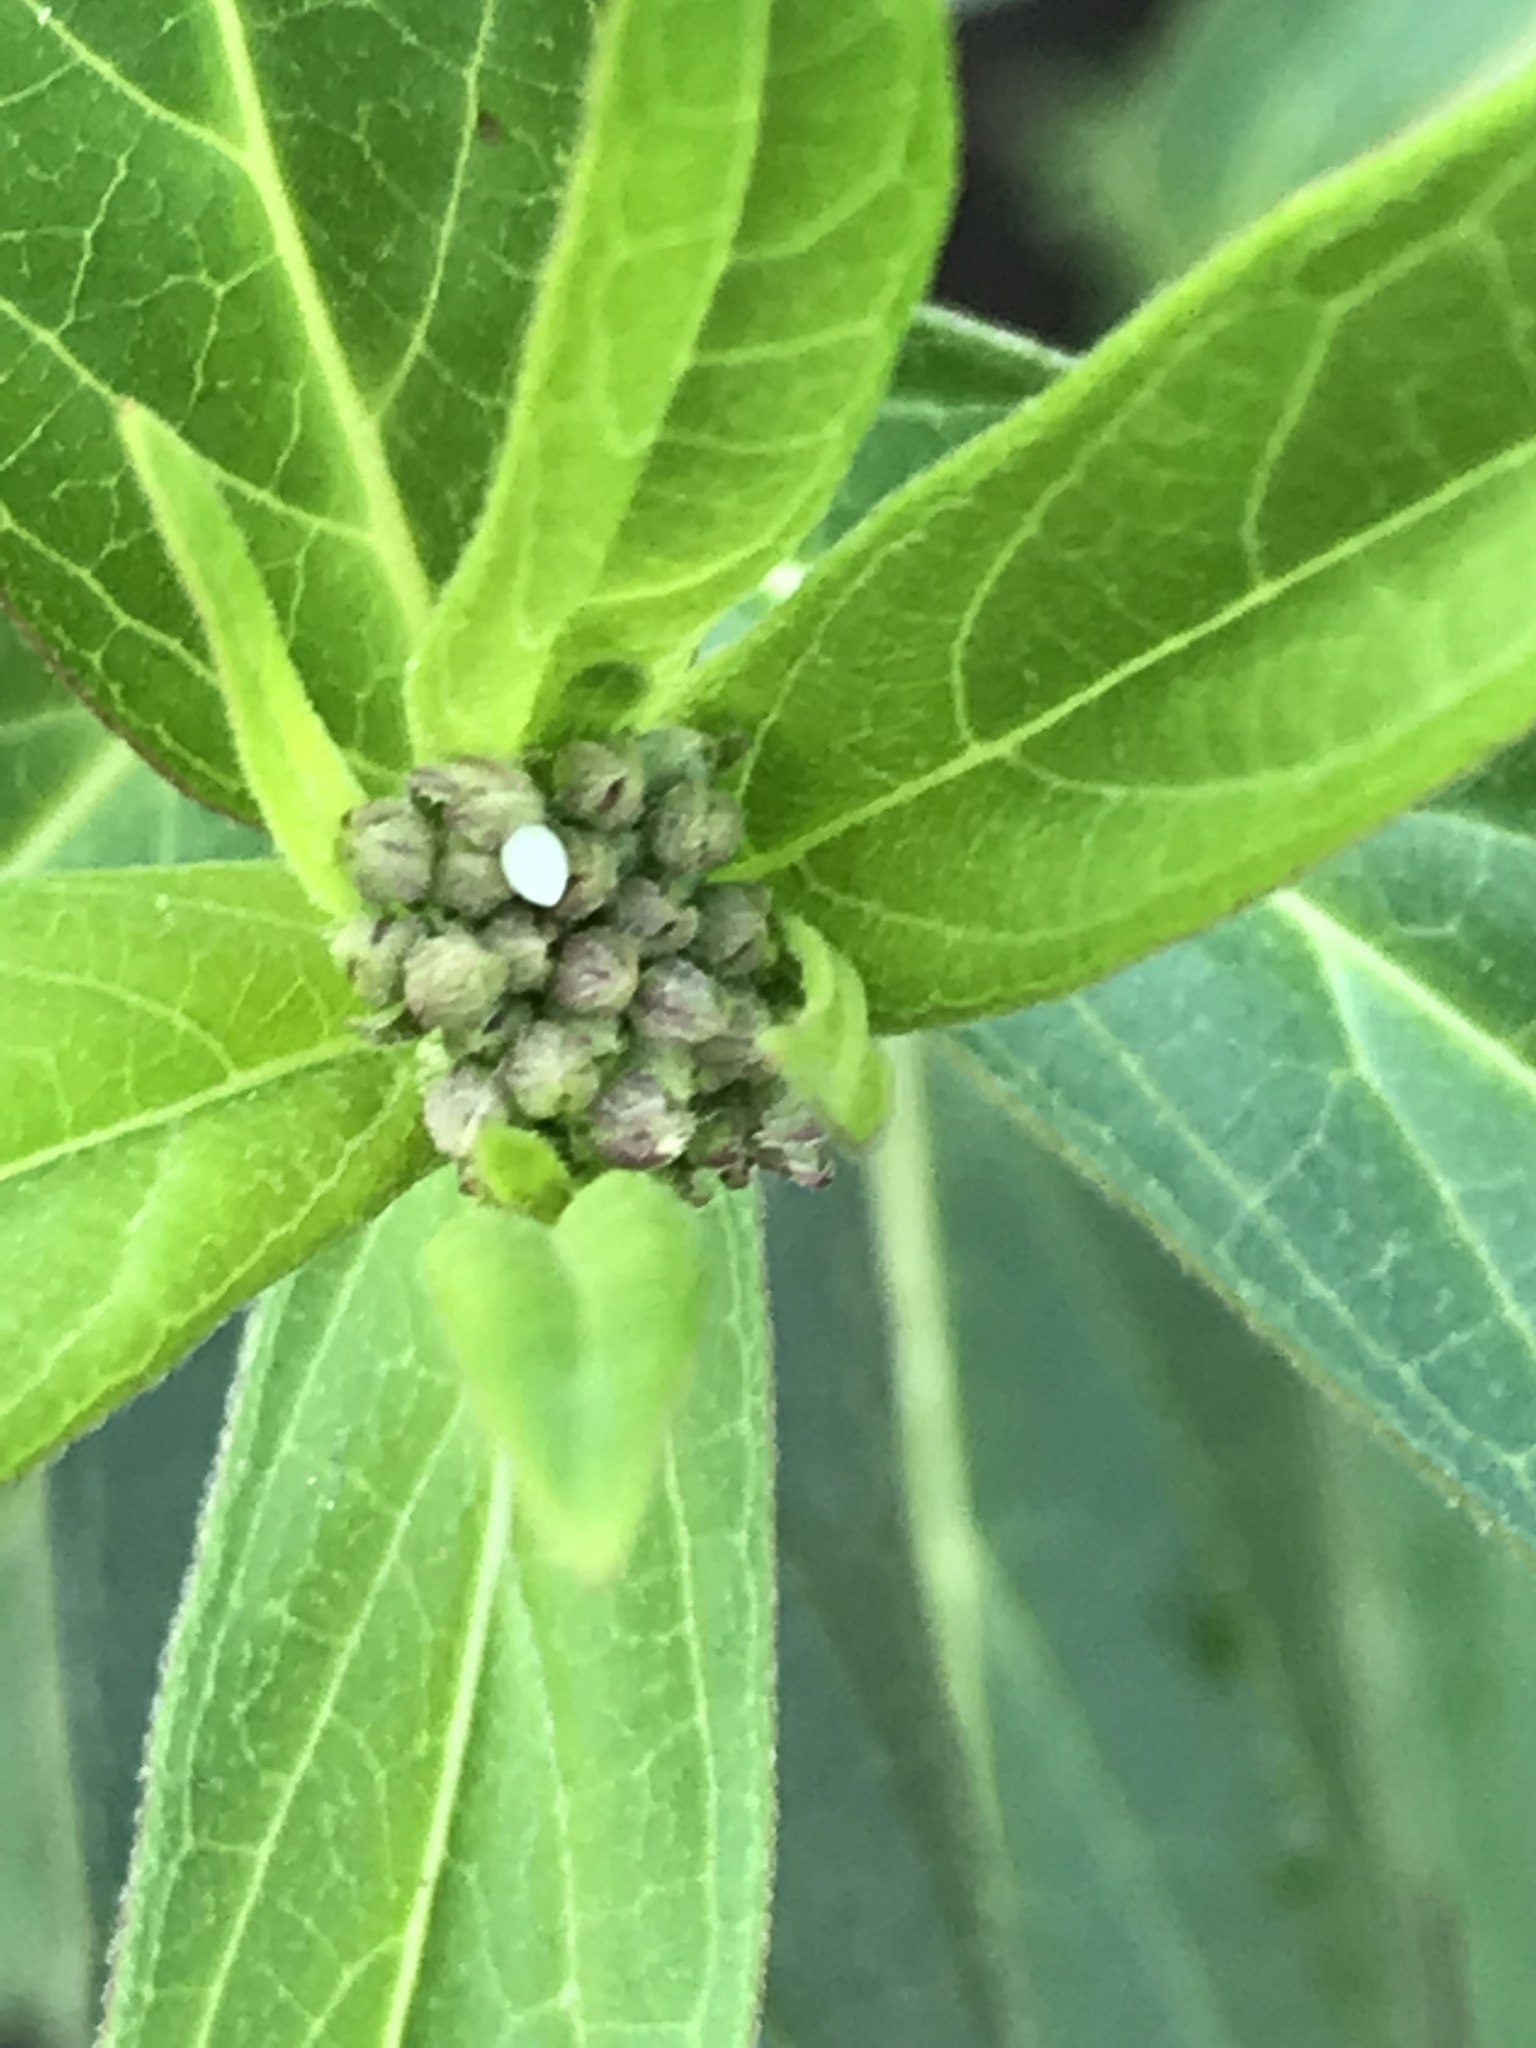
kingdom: Animalia
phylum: Arthropoda
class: Insecta
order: Lepidoptera
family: Nymphalidae
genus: Danaus
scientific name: Danaus plexippus
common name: Monarch
